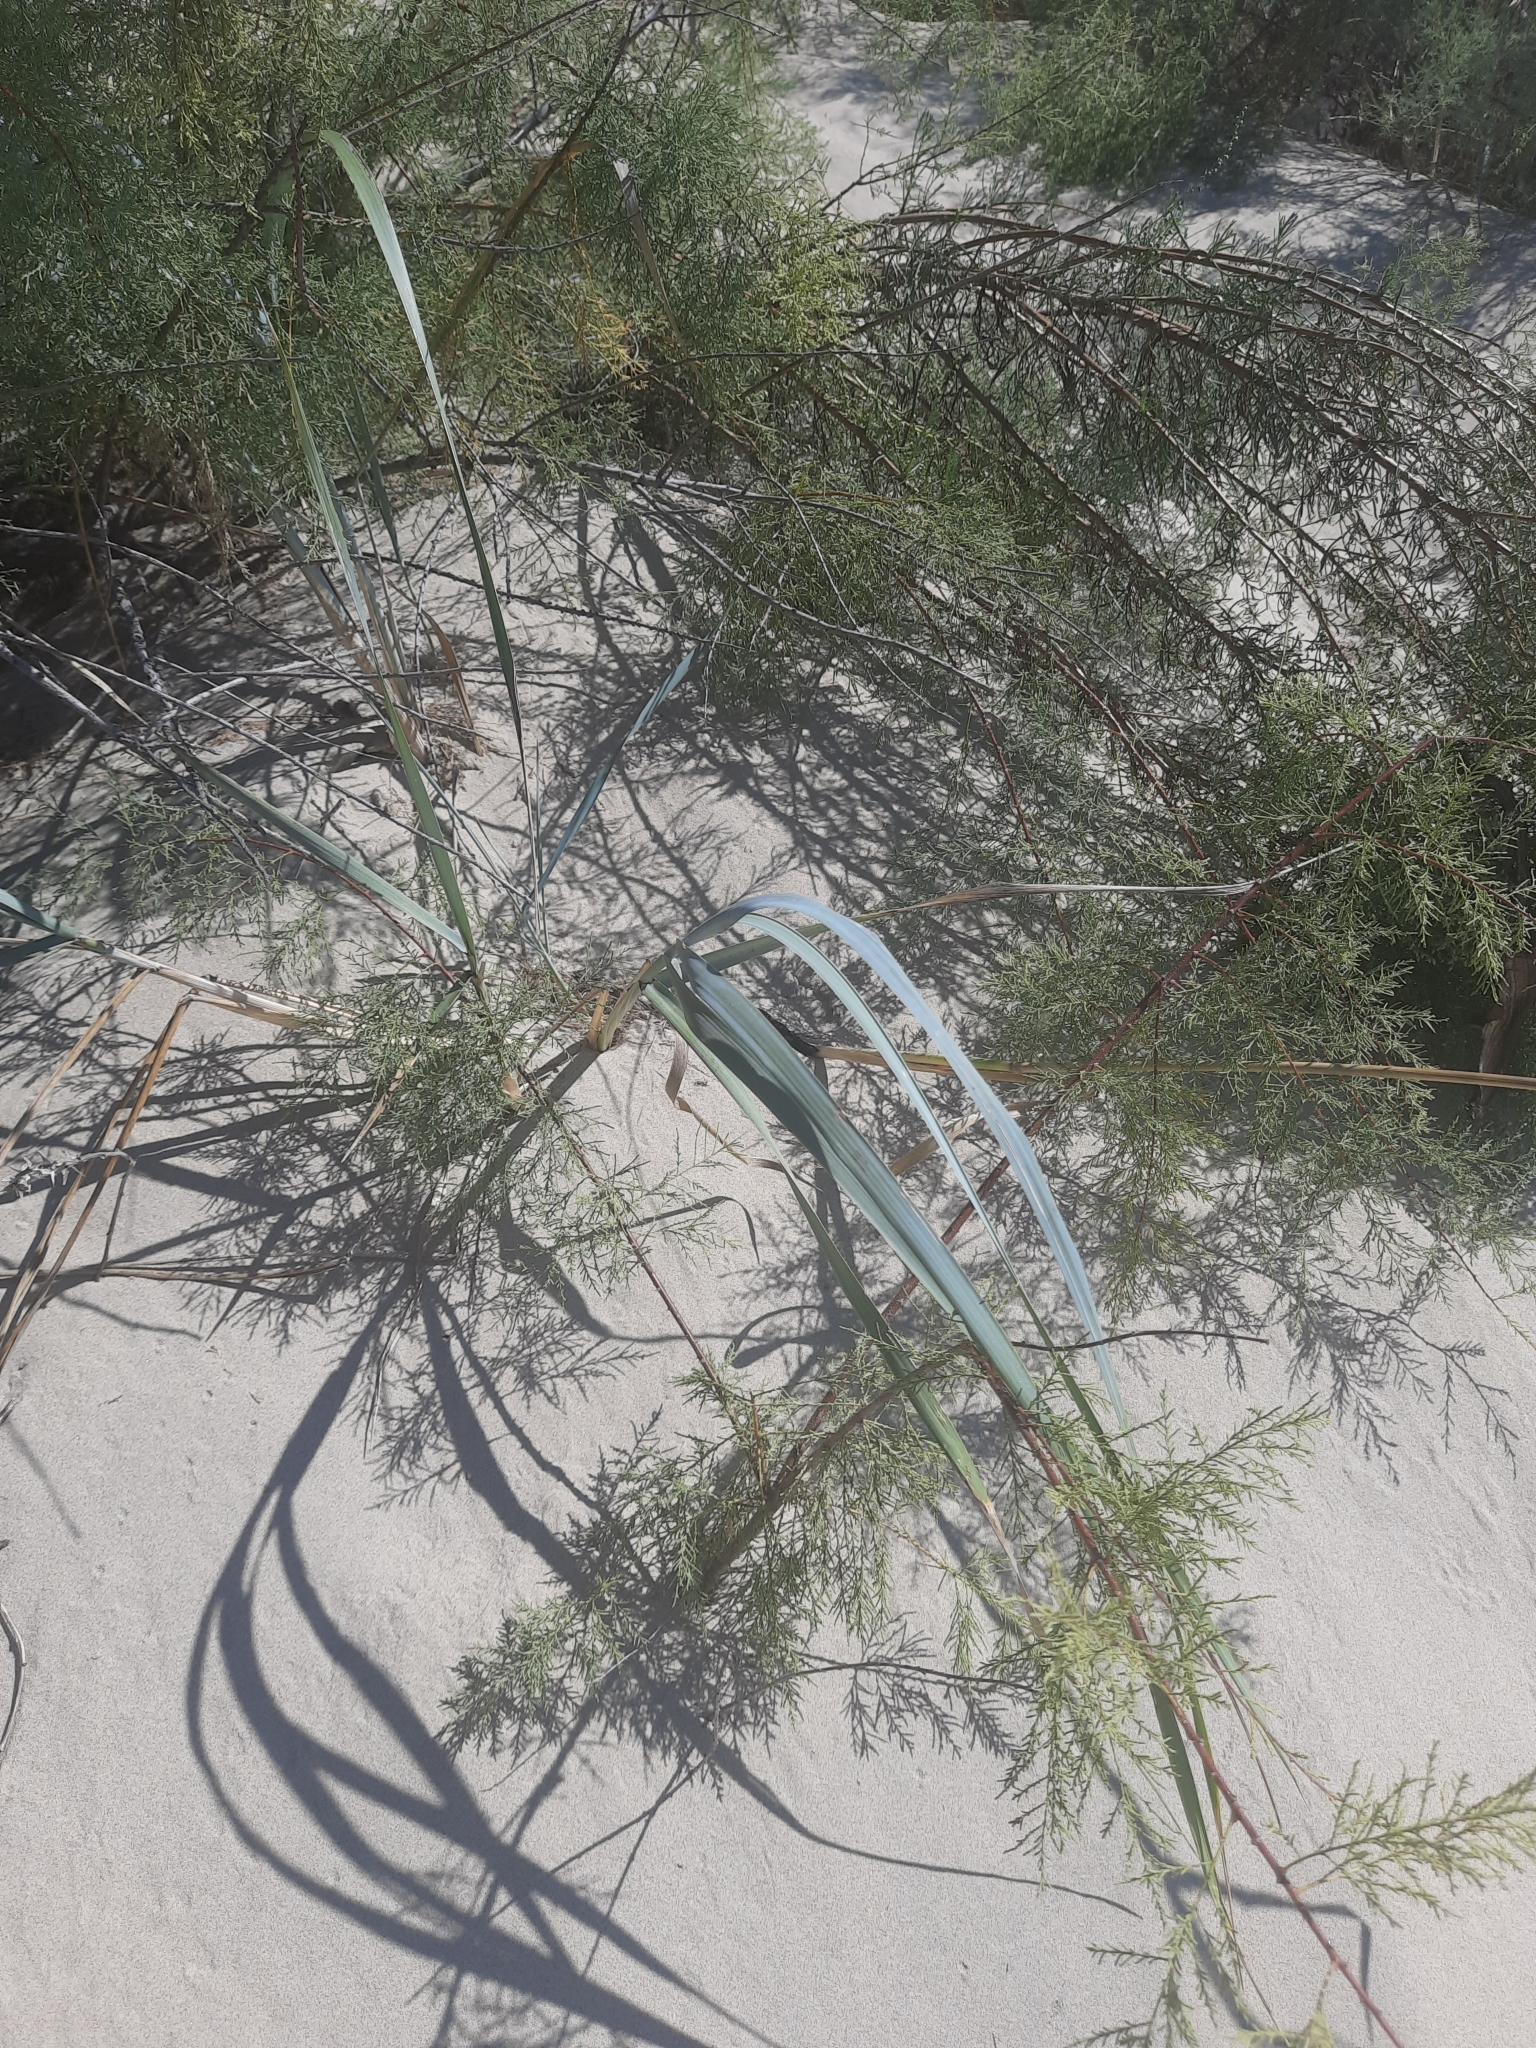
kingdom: Plantae
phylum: Tracheophyta
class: Liliopsida
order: Poales
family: Poaceae
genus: Leymus
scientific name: Leymus racemosus
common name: Mammoth wildrye
